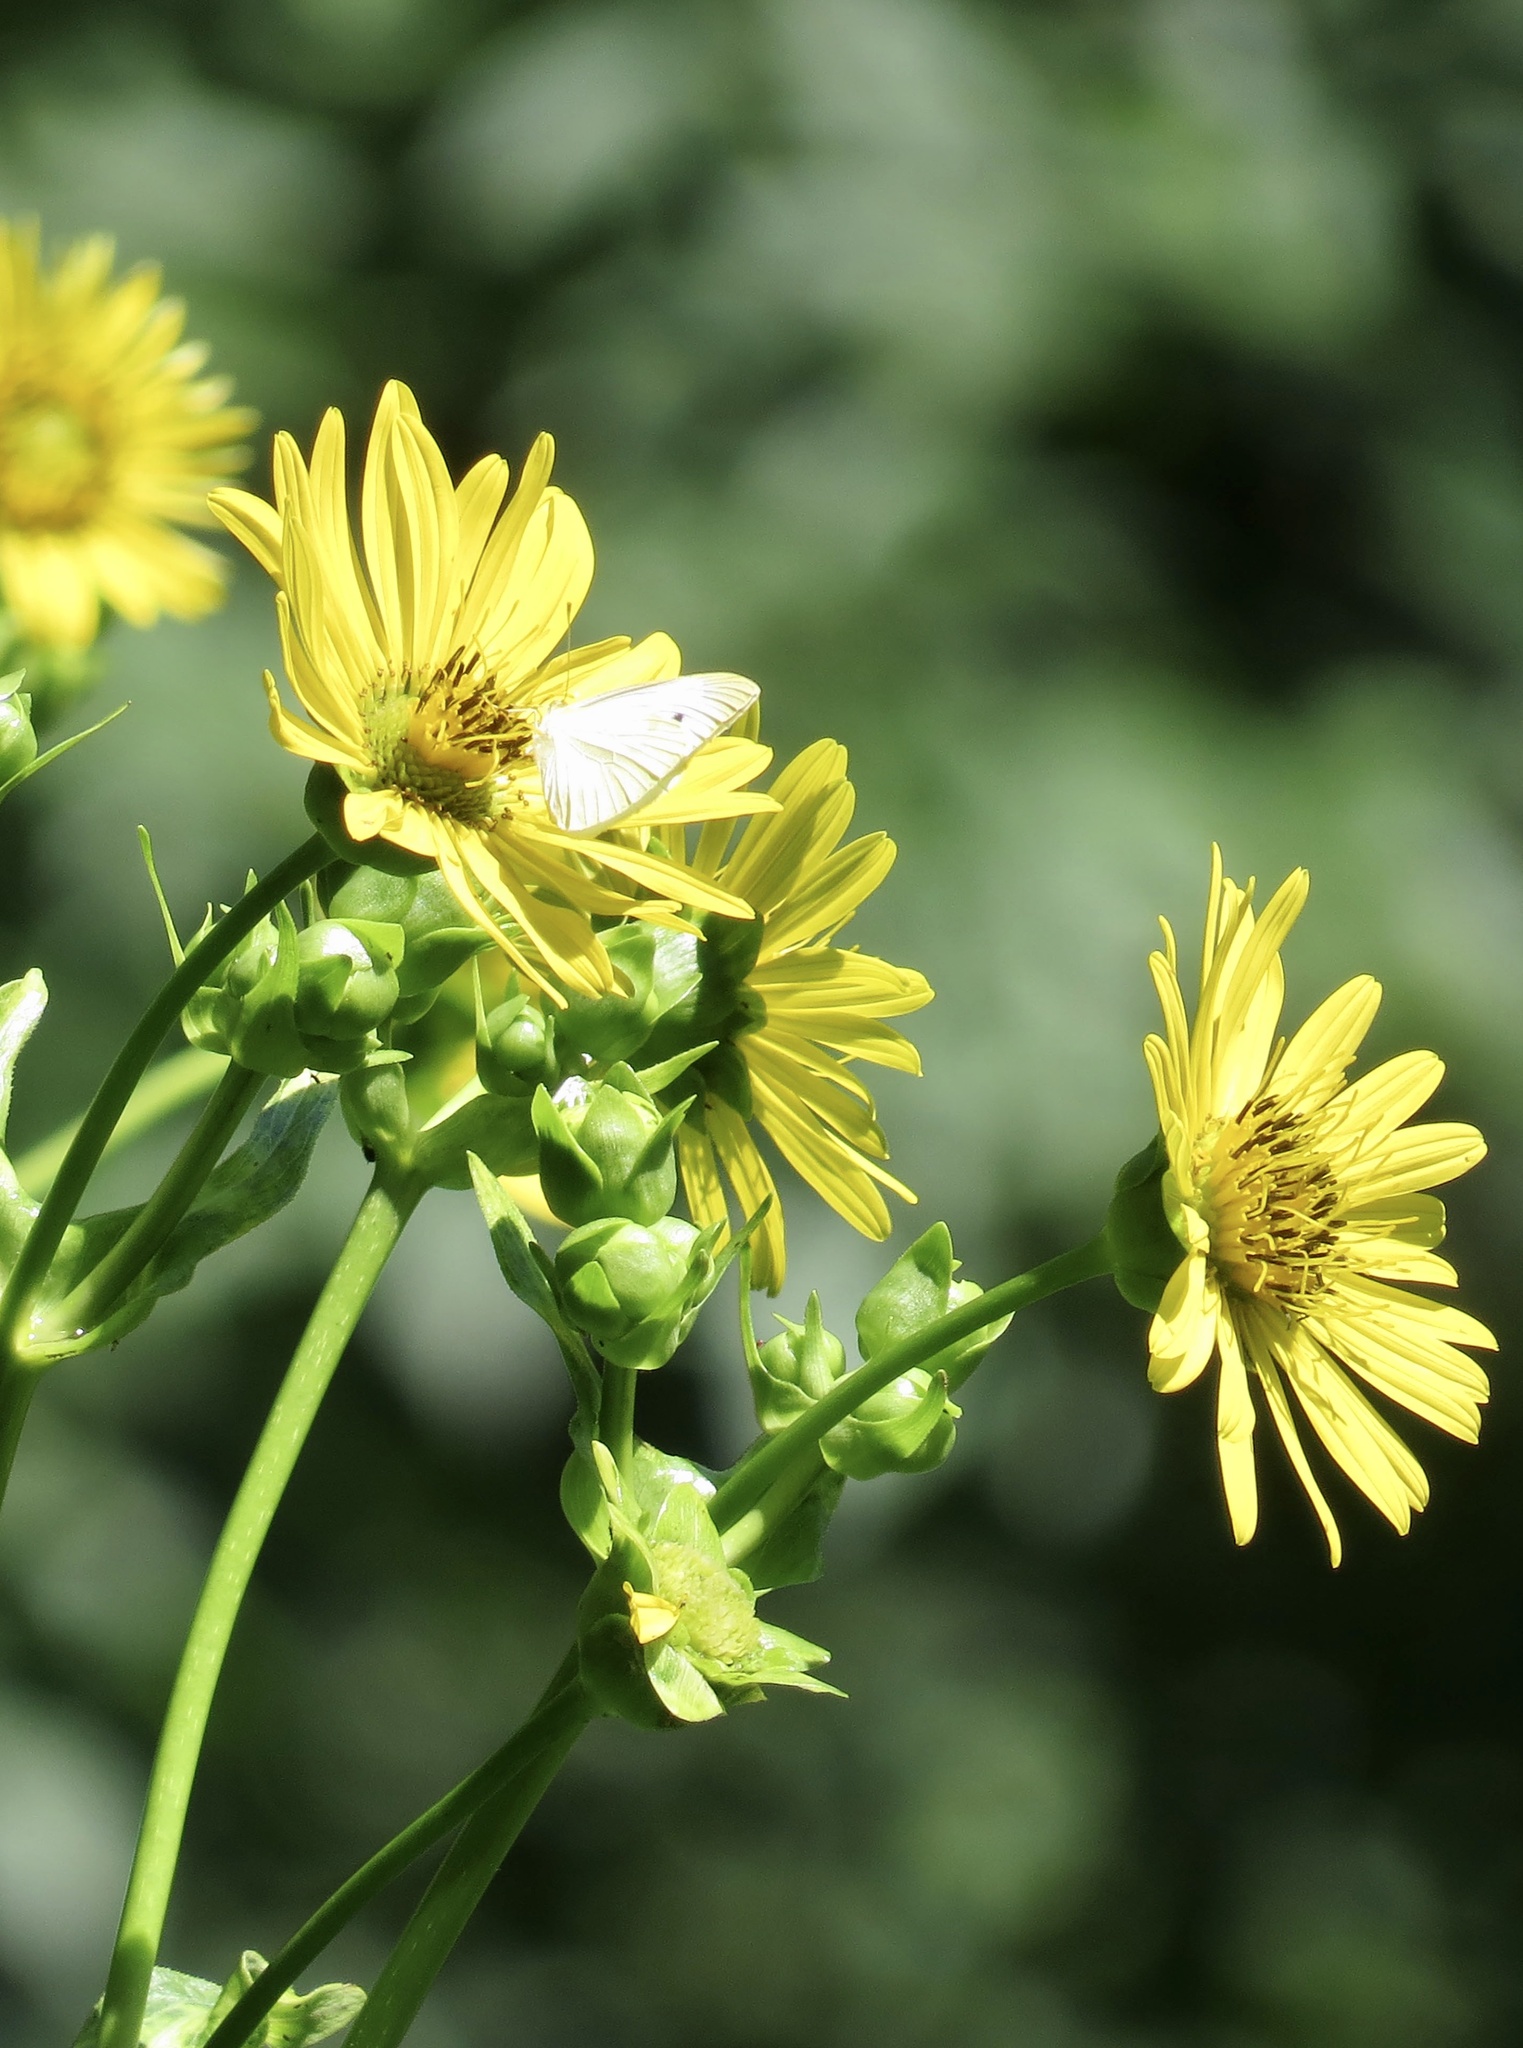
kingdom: Plantae
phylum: Tracheophyta
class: Magnoliopsida
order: Asterales
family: Asteraceae
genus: Silphium
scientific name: Silphium perfoliatum
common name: Cup-plant
